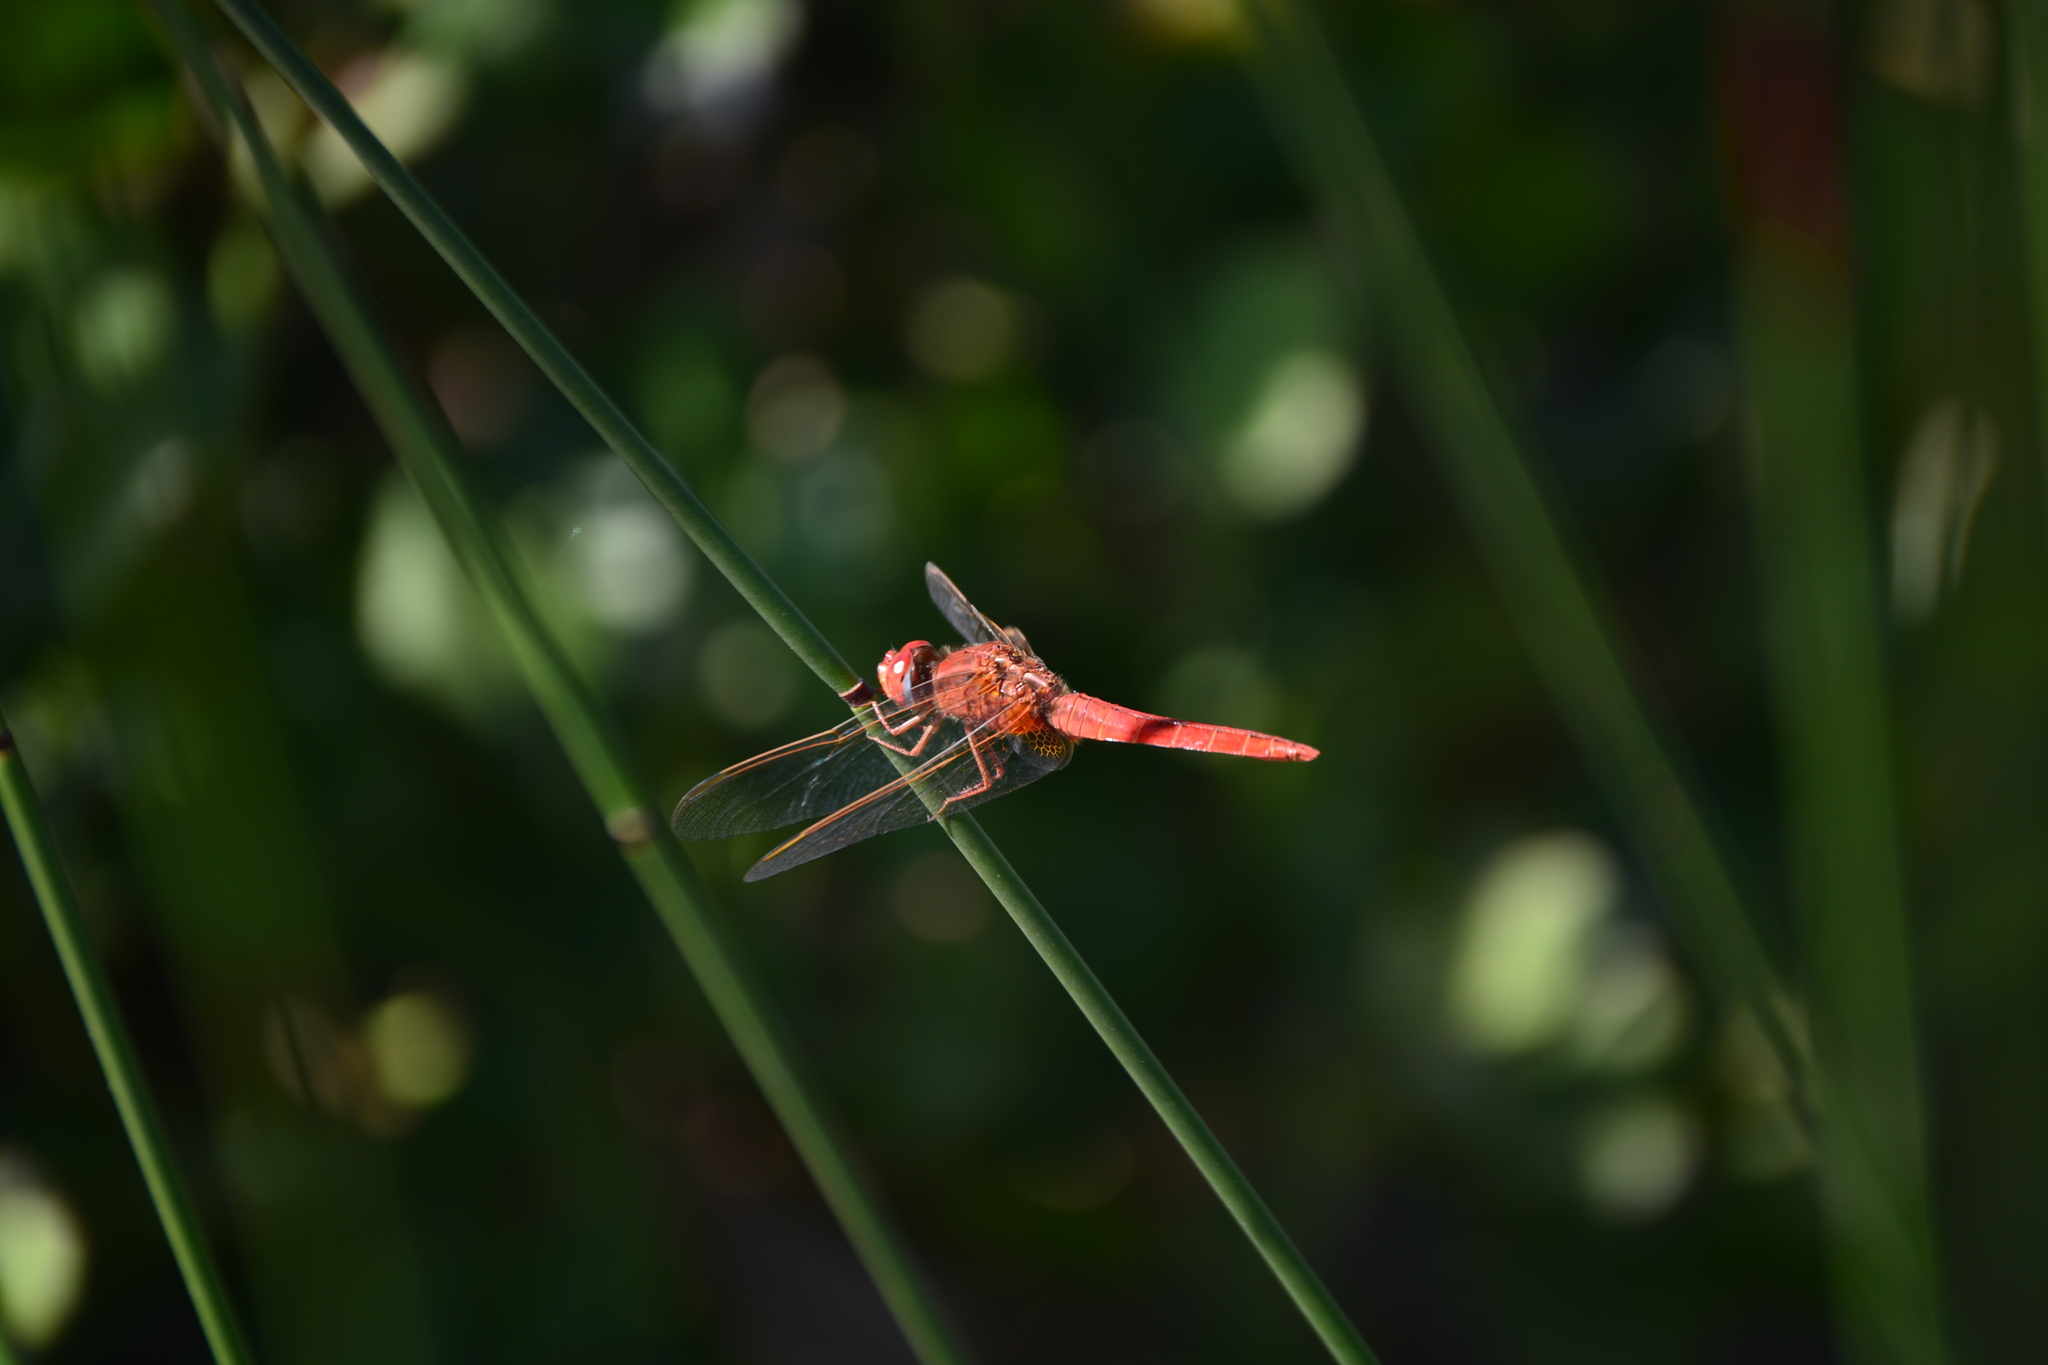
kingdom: Animalia
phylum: Arthropoda
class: Insecta
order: Odonata
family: Libellulidae
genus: Crocothemis
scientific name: Crocothemis erythraea
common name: Scarlet dragonfly
